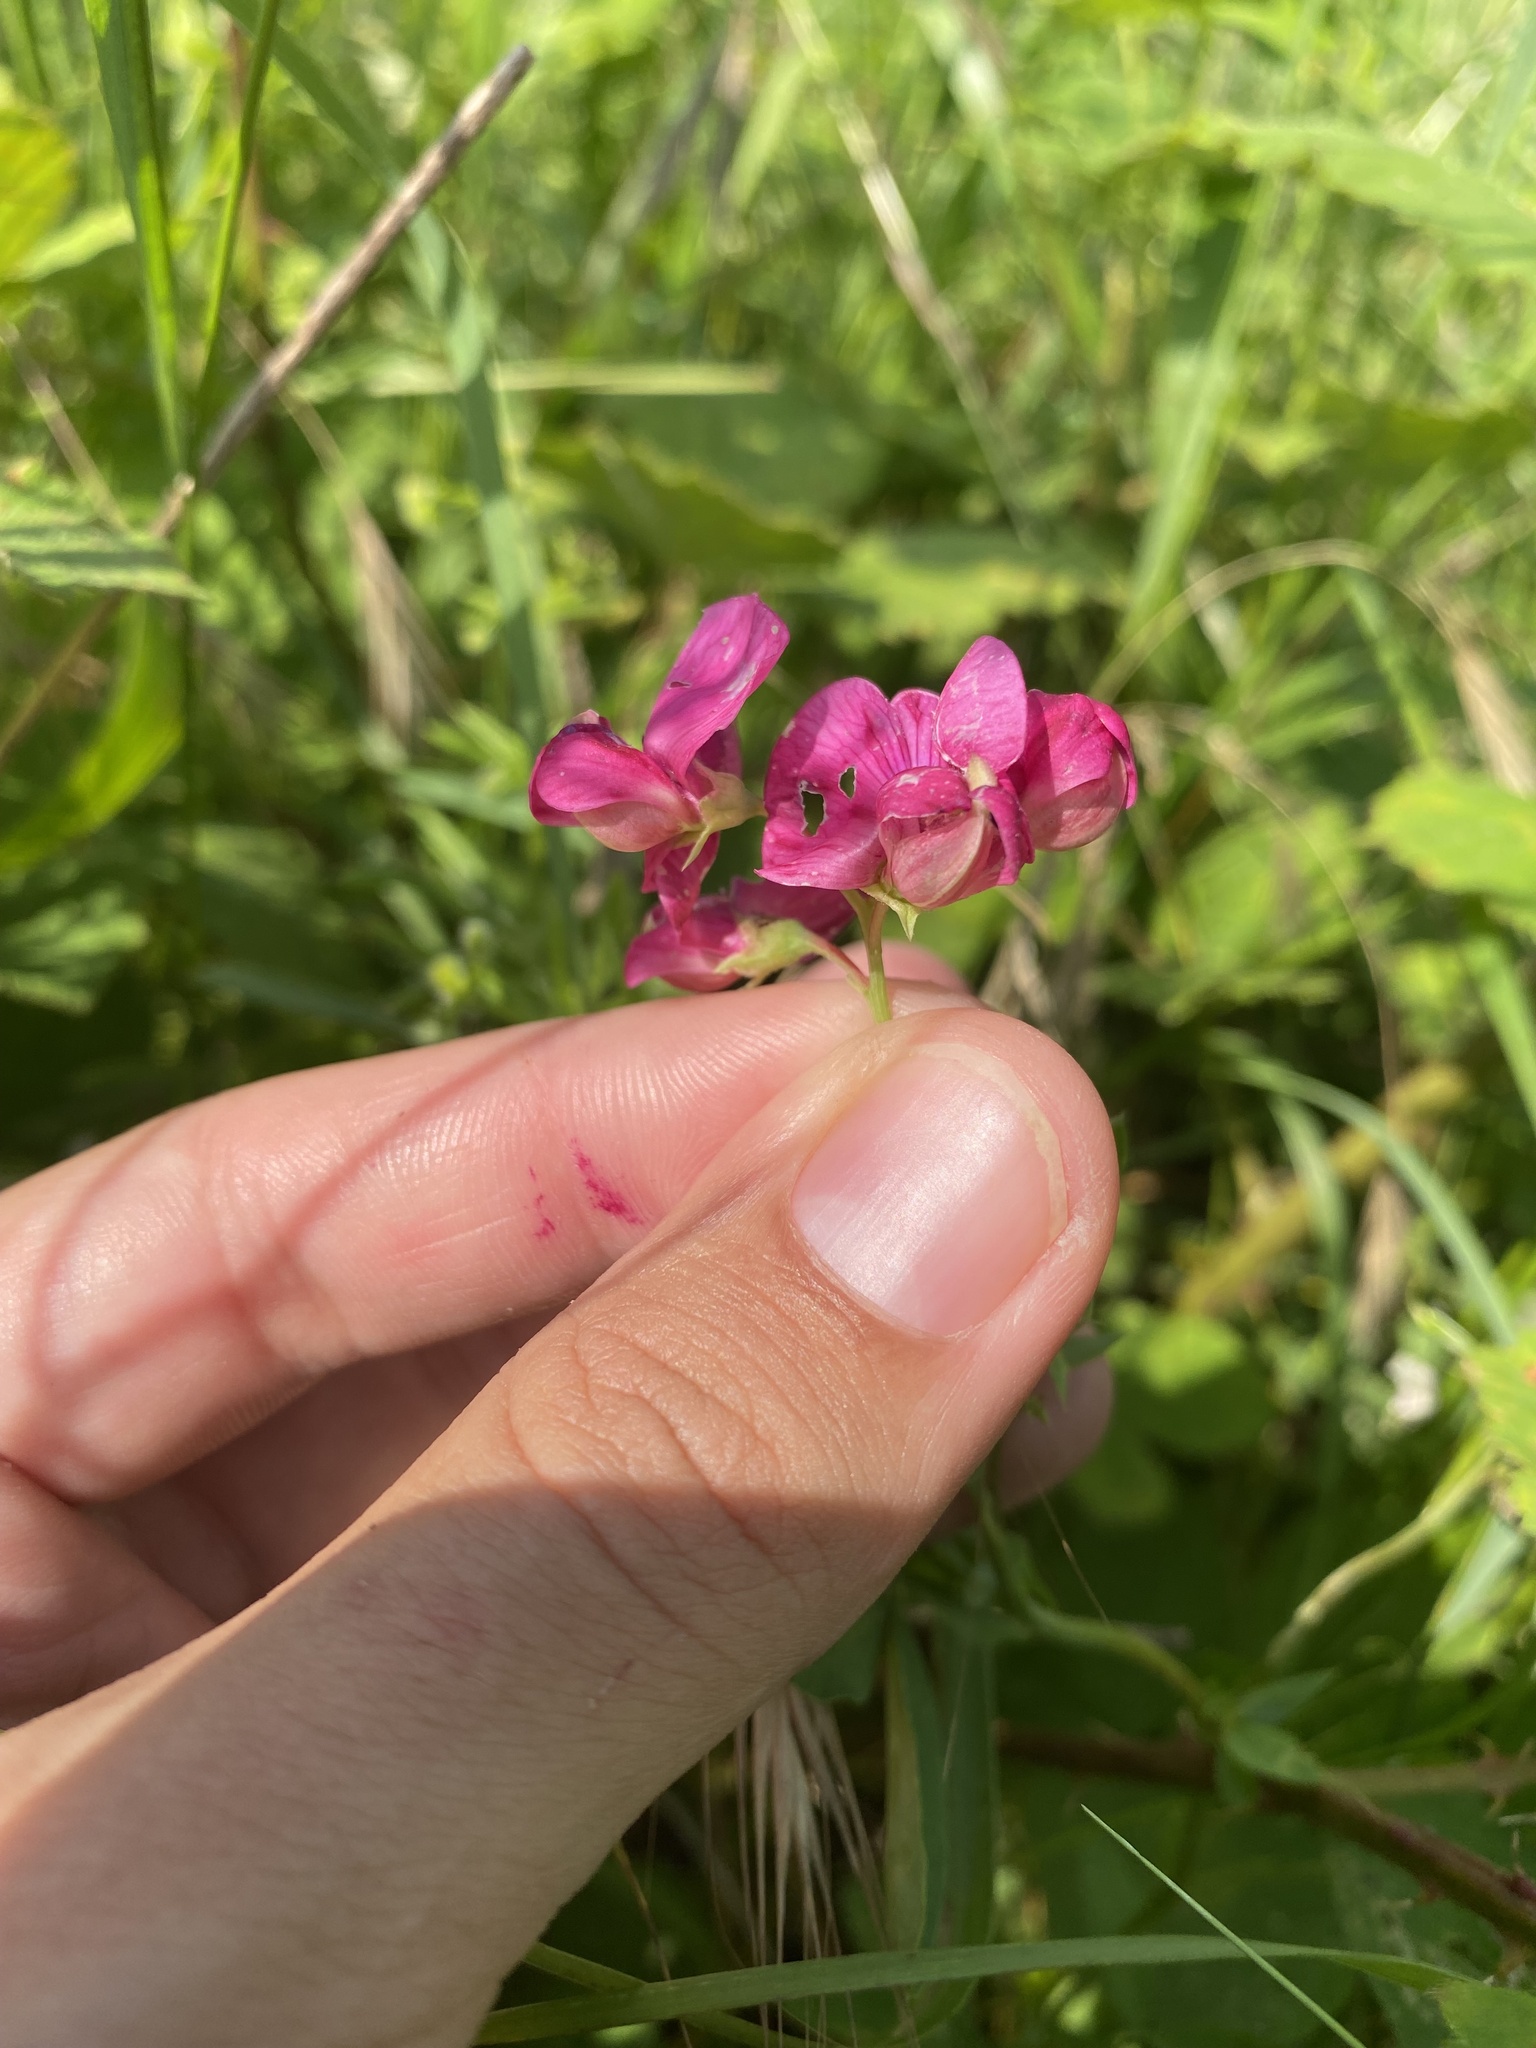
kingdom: Plantae
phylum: Tracheophyta
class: Magnoliopsida
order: Fabales
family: Fabaceae
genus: Lathyrus
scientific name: Lathyrus tuberosus
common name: Tuberous pea
